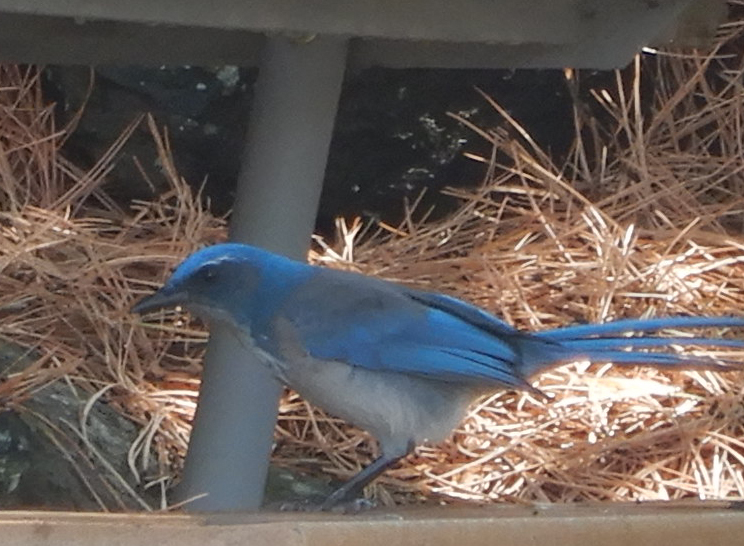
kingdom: Animalia
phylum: Chordata
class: Aves
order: Passeriformes
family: Corvidae
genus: Aphelocoma
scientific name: Aphelocoma woodhouseii
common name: Woodhouse's scrub-jay
